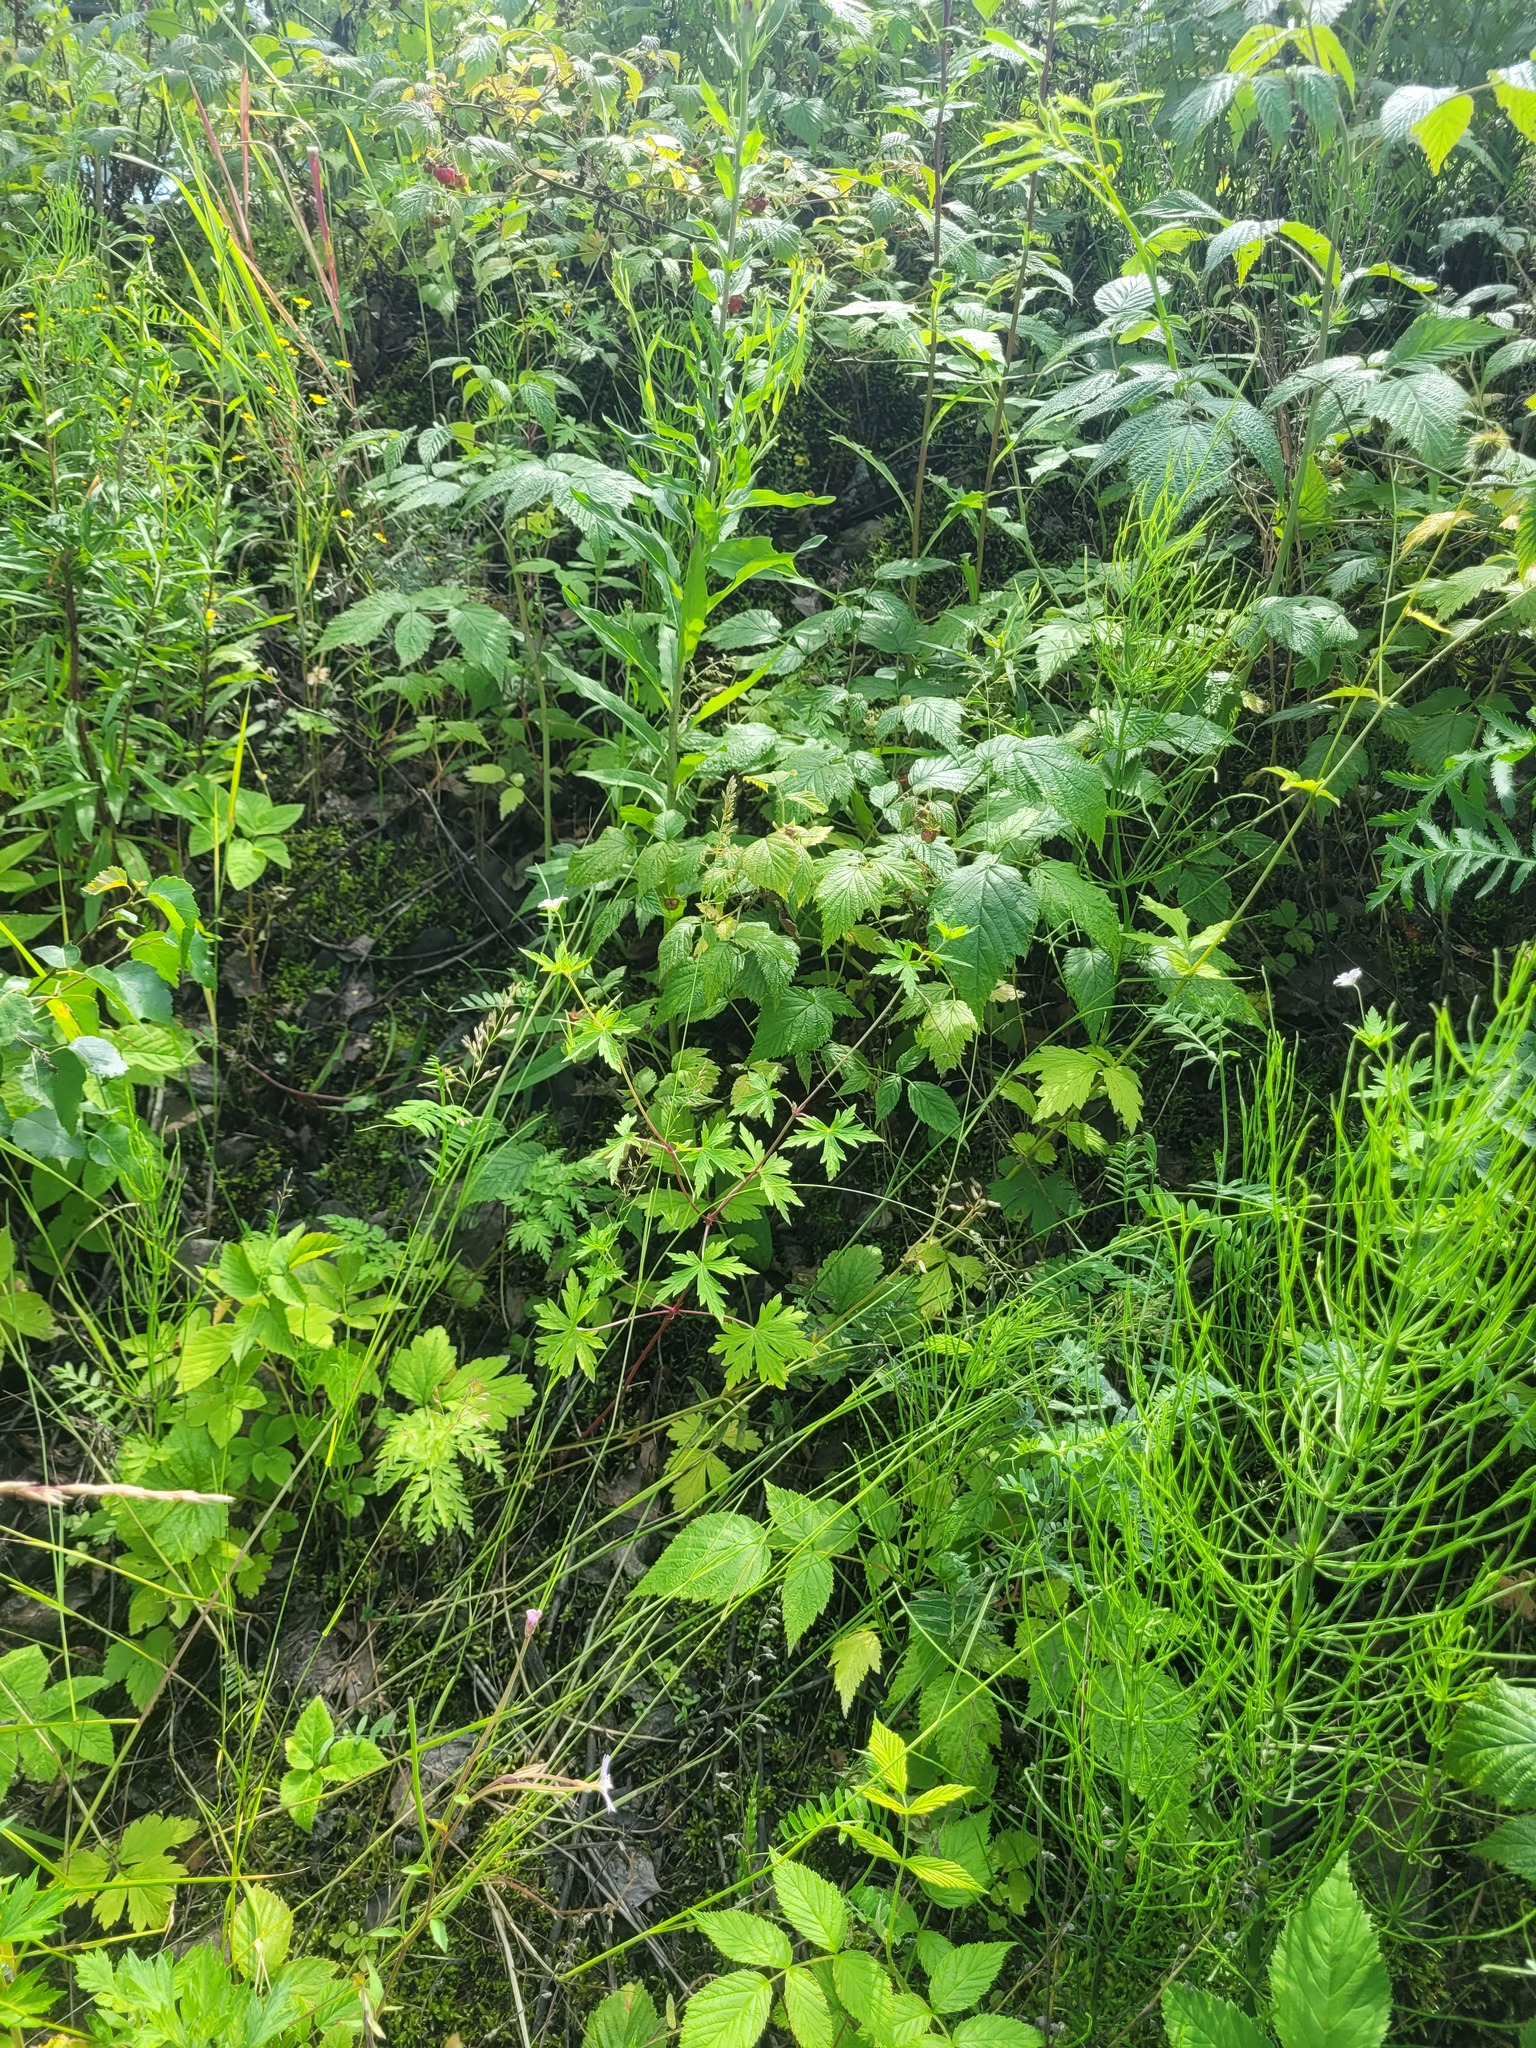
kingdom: Plantae
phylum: Tracheophyta
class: Magnoliopsida
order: Geraniales
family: Geraniaceae
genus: Geranium
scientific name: Geranium sibiricum
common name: Siberian crane's-bill
